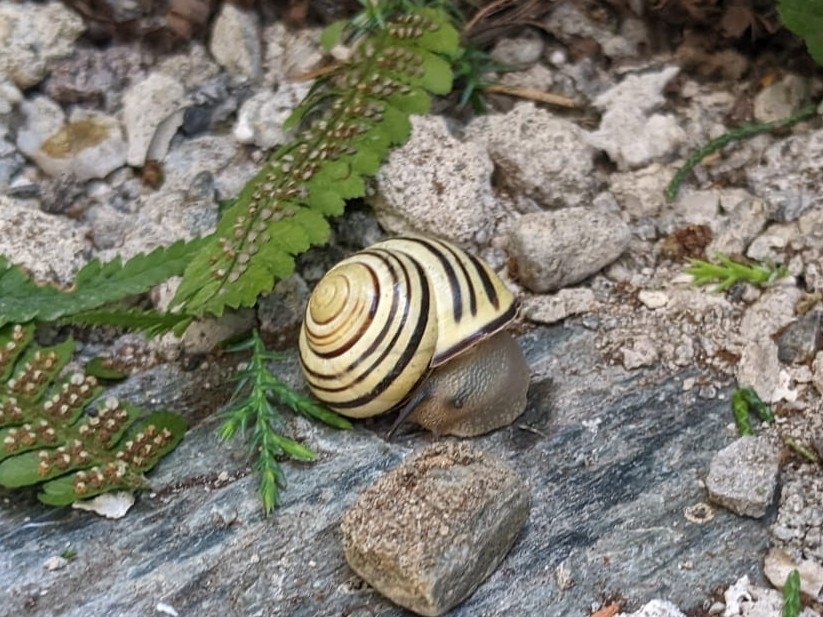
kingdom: Animalia
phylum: Mollusca
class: Gastropoda
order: Stylommatophora
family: Helicidae
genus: Cepaea
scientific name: Cepaea nemoralis
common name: Grovesnail
